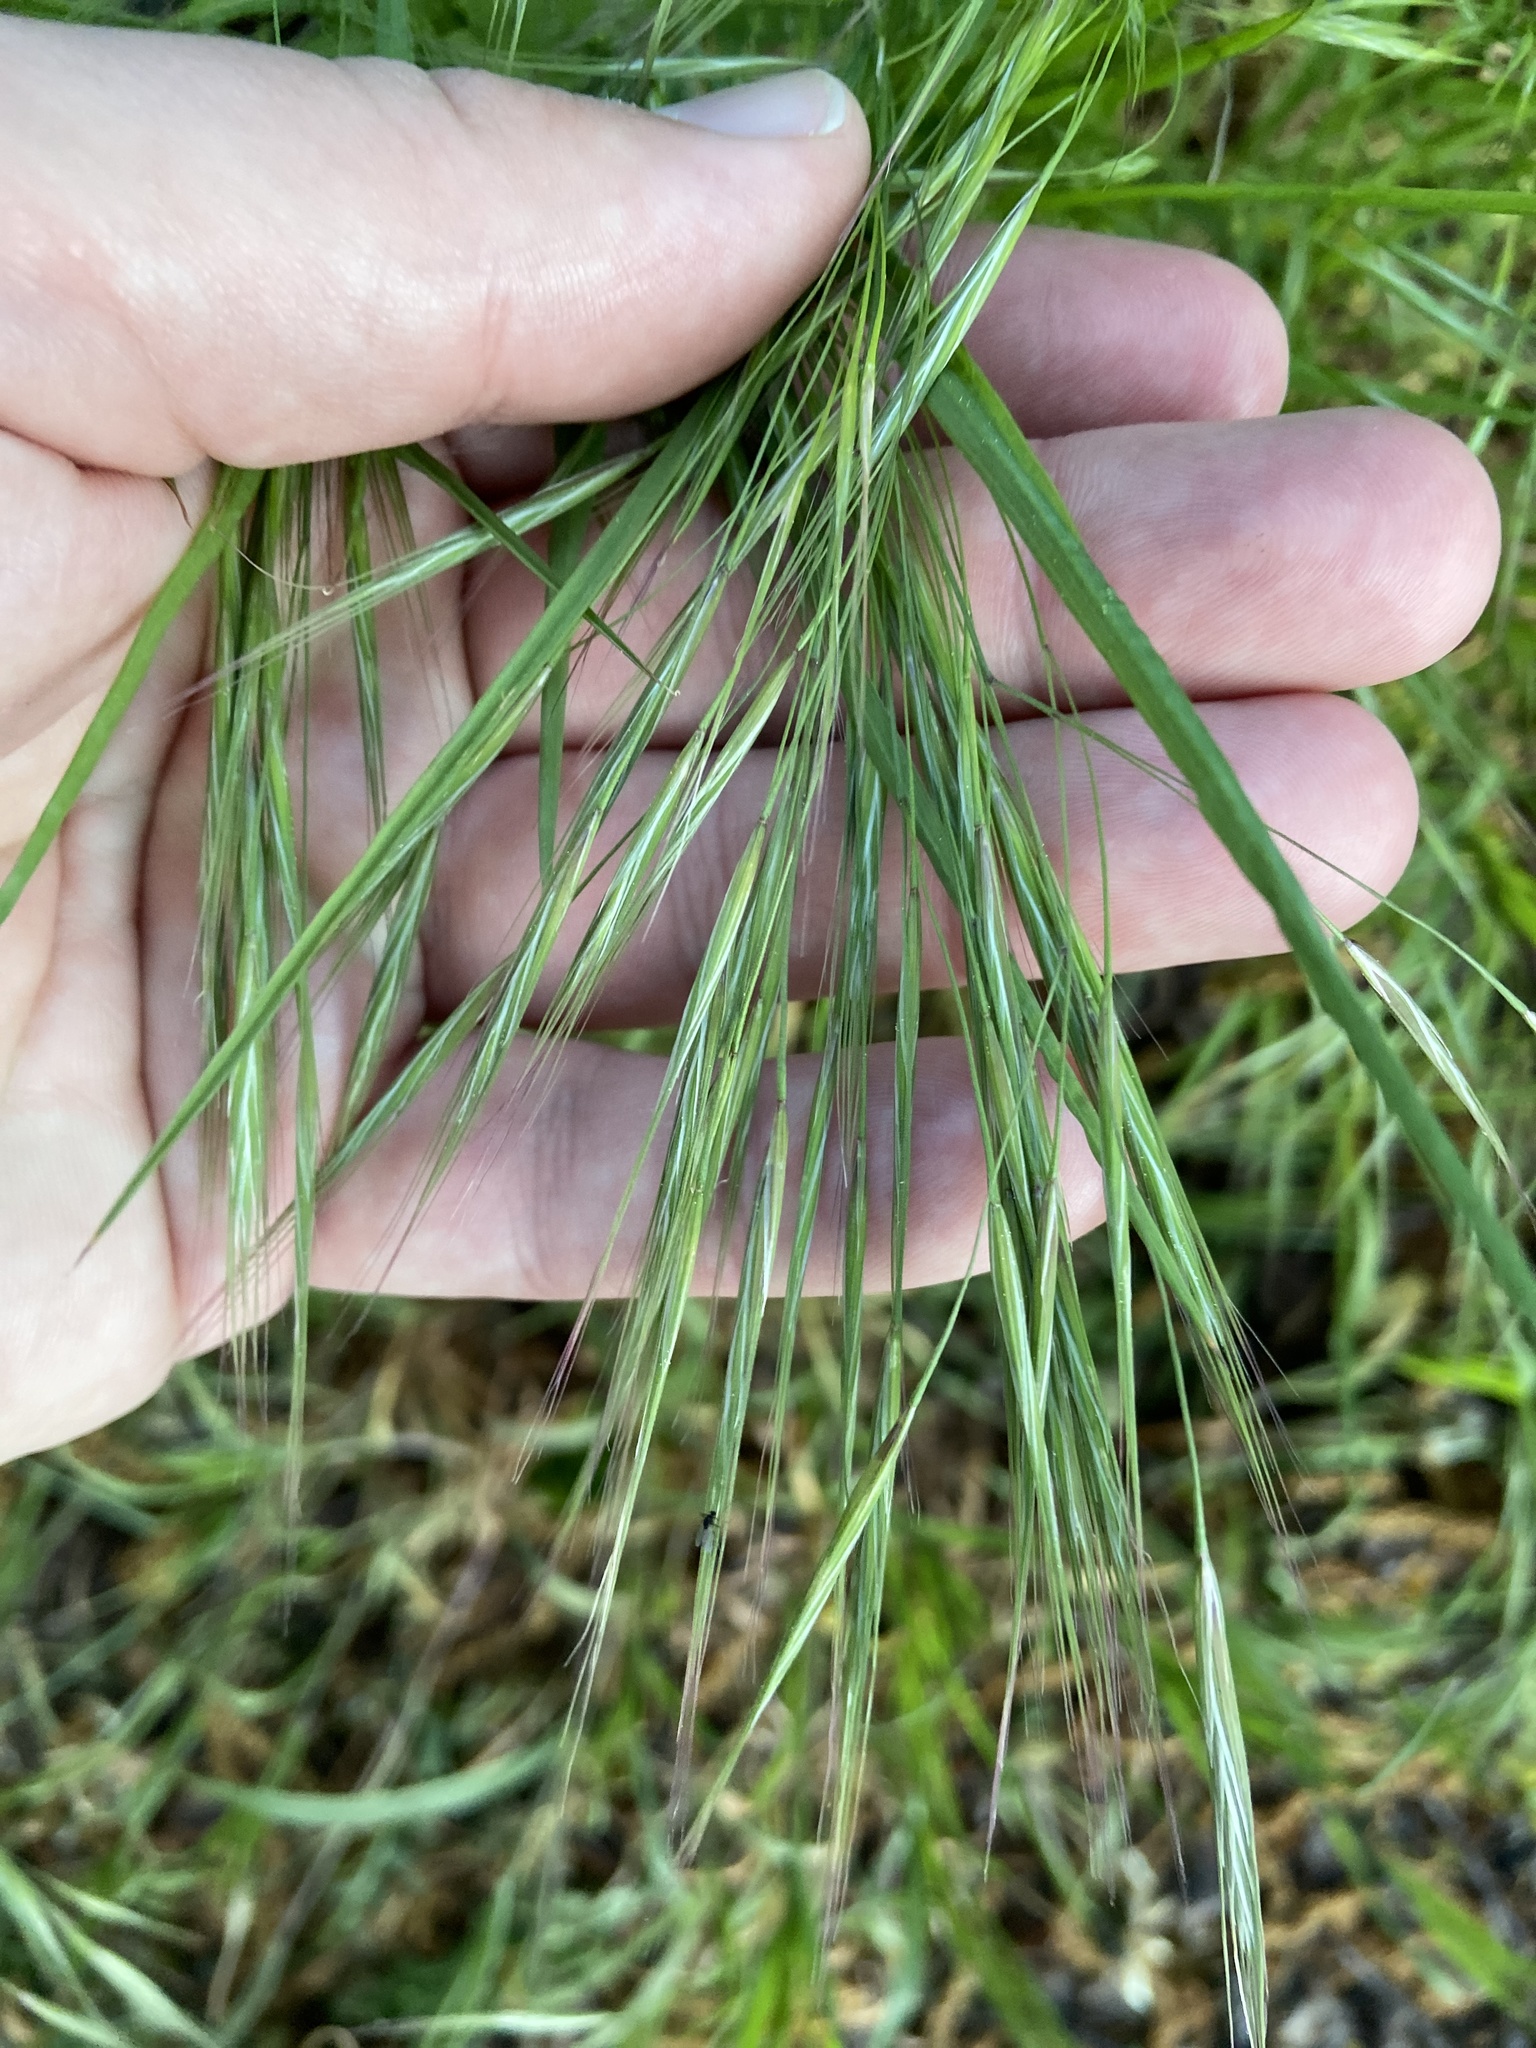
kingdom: Plantae
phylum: Tracheophyta
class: Liliopsida
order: Poales
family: Poaceae
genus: Bromus
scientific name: Bromus sterilis
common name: Poverty brome
